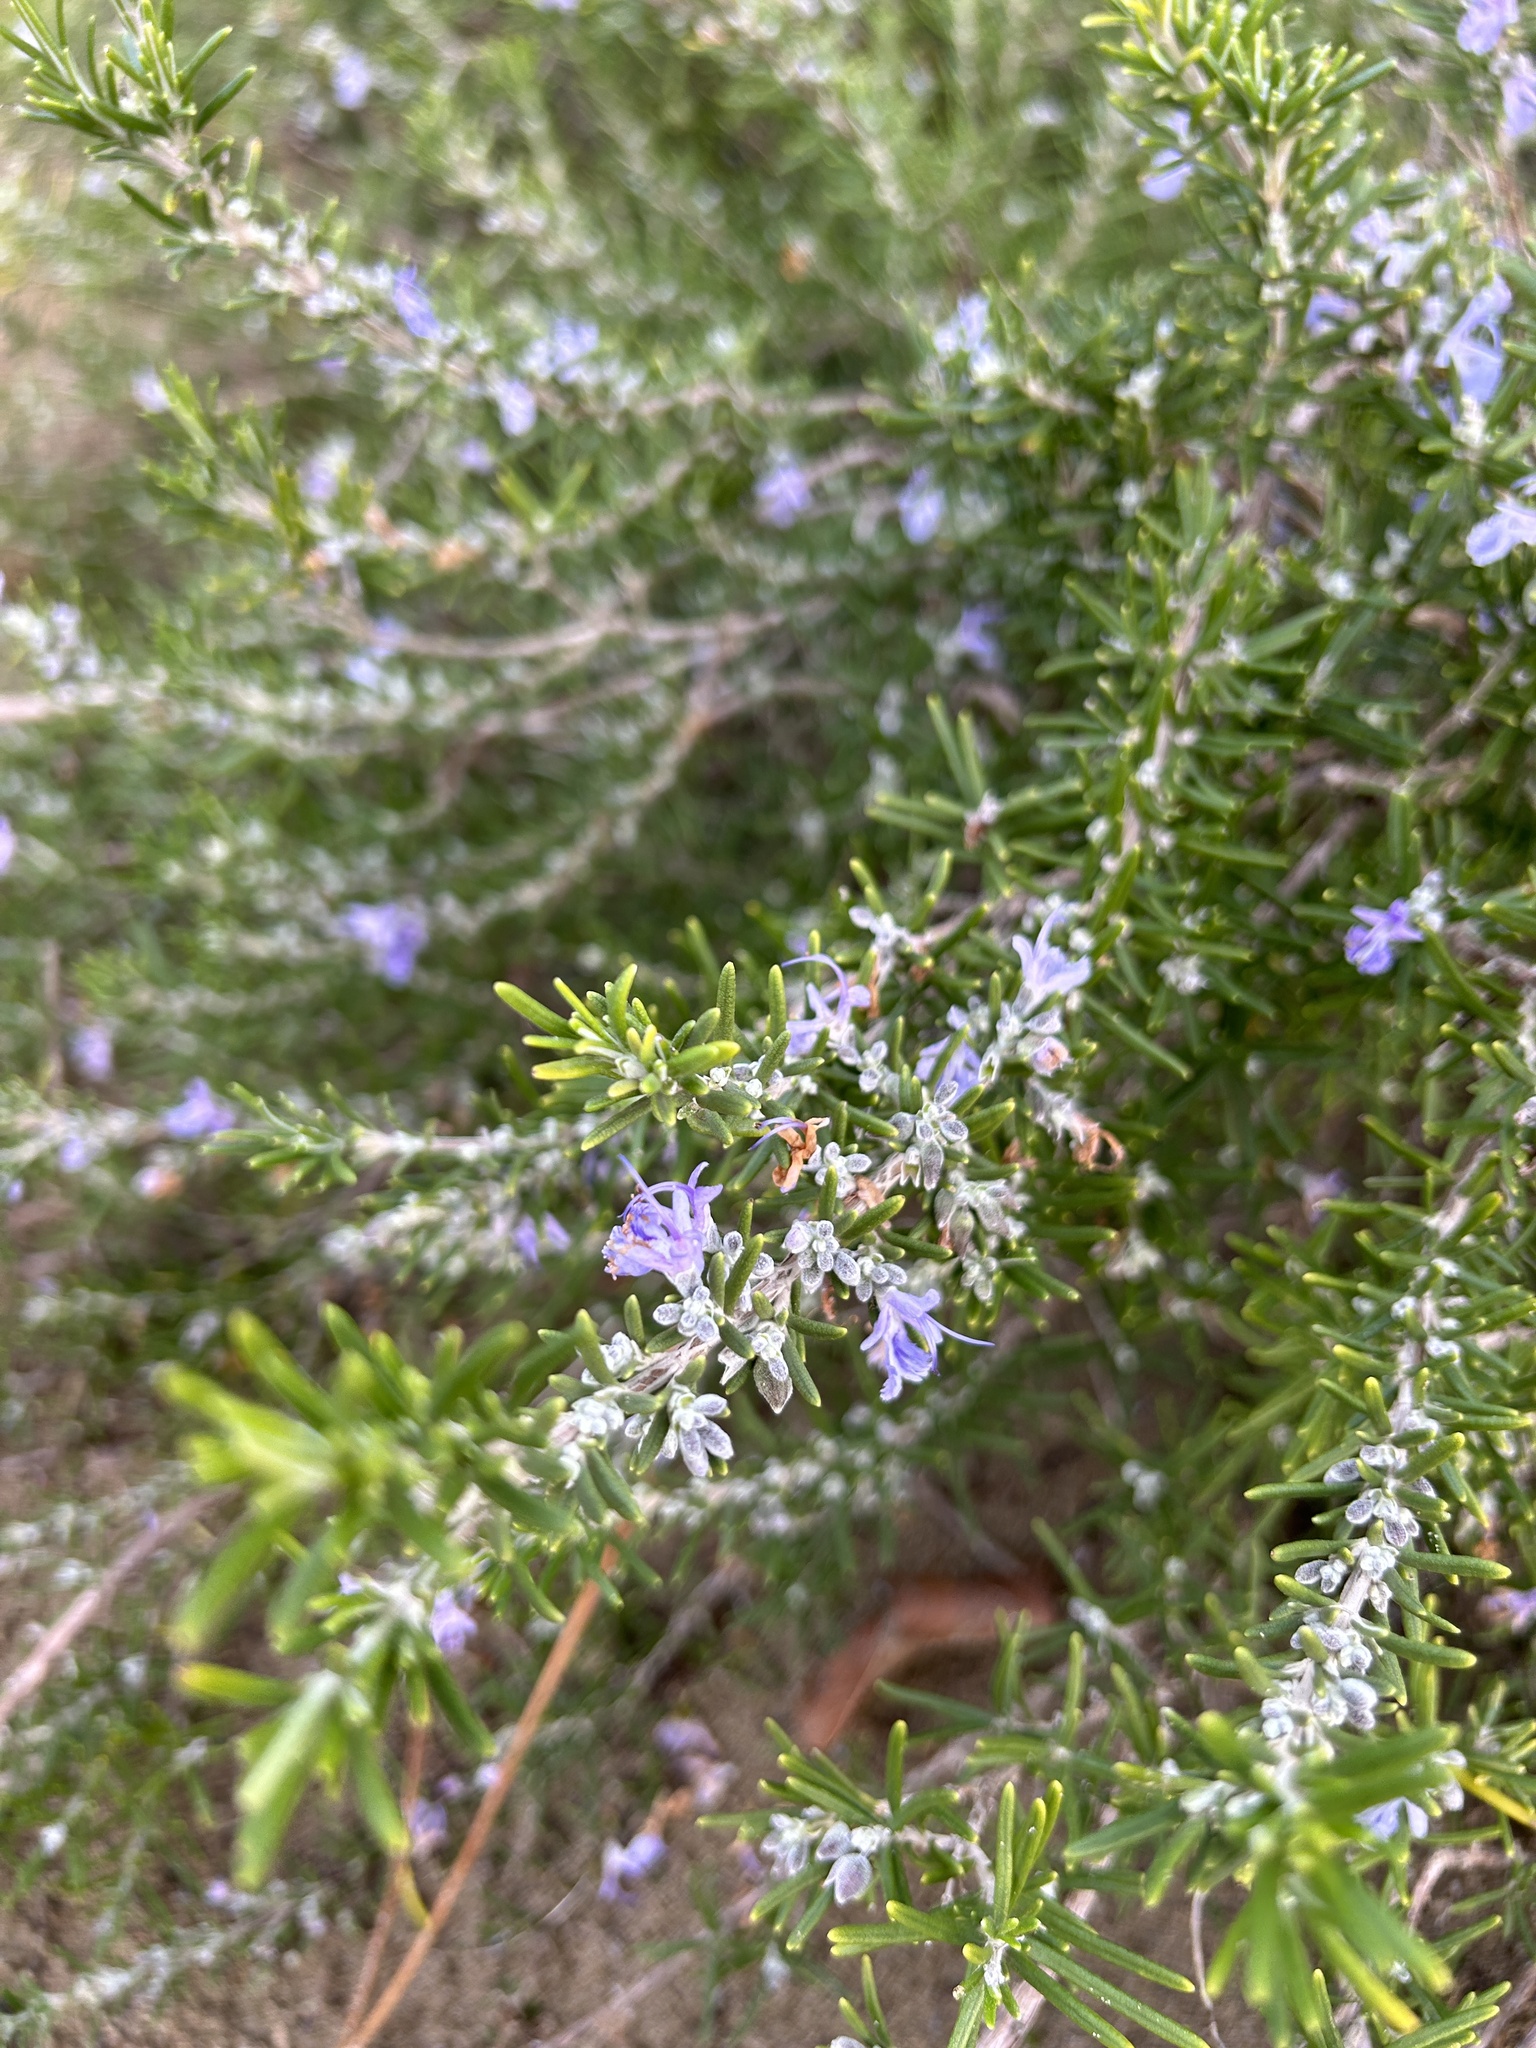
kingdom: Plantae
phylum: Tracheophyta
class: Magnoliopsida
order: Lamiales
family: Lamiaceae
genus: Salvia
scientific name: Salvia rosmarinus
